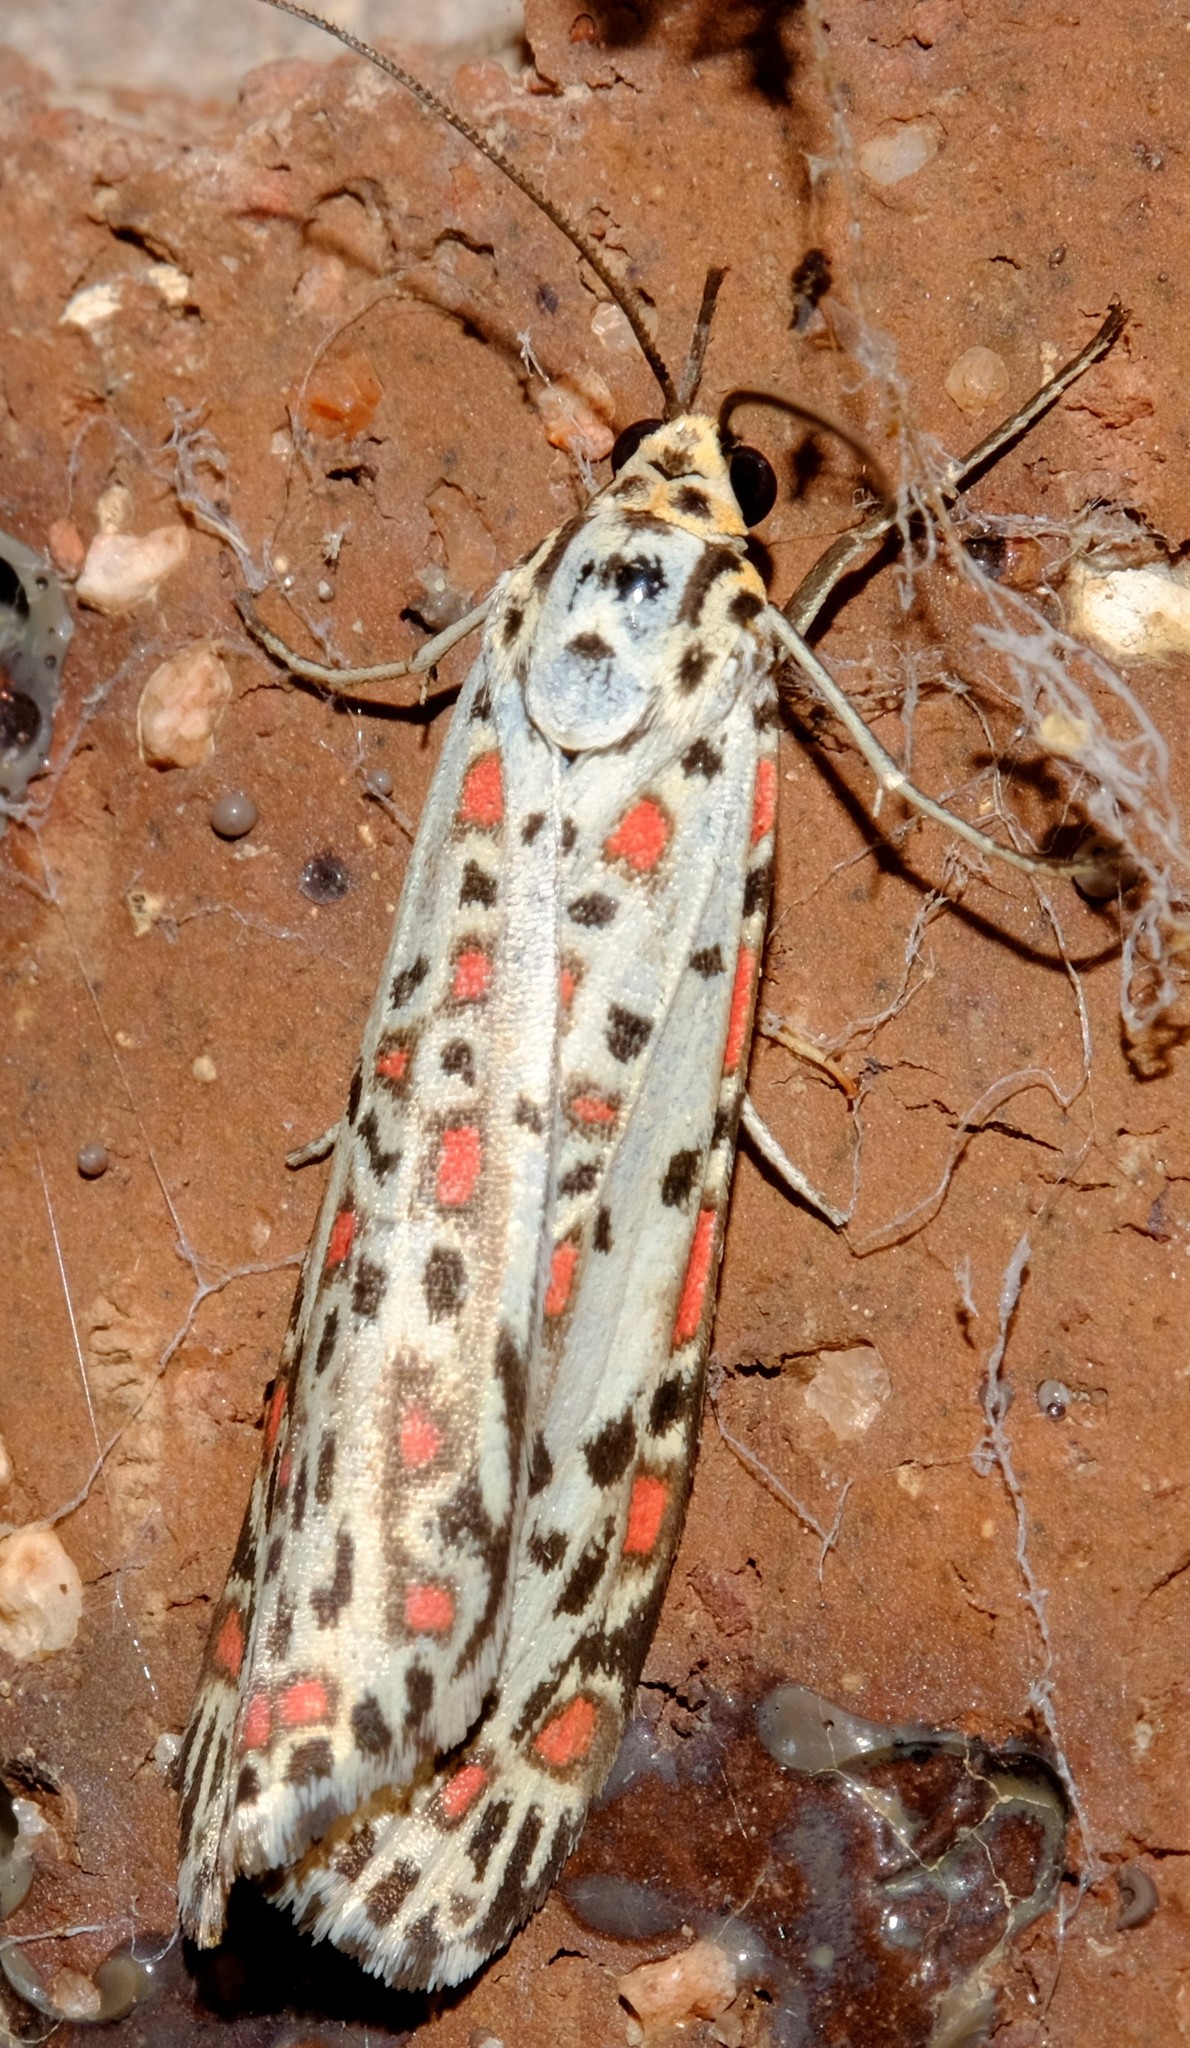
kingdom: Animalia
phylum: Arthropoda
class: Insecta
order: Lepidoptera
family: Erebidae
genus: Utetheisa
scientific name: Utetheisa pulchelloides
